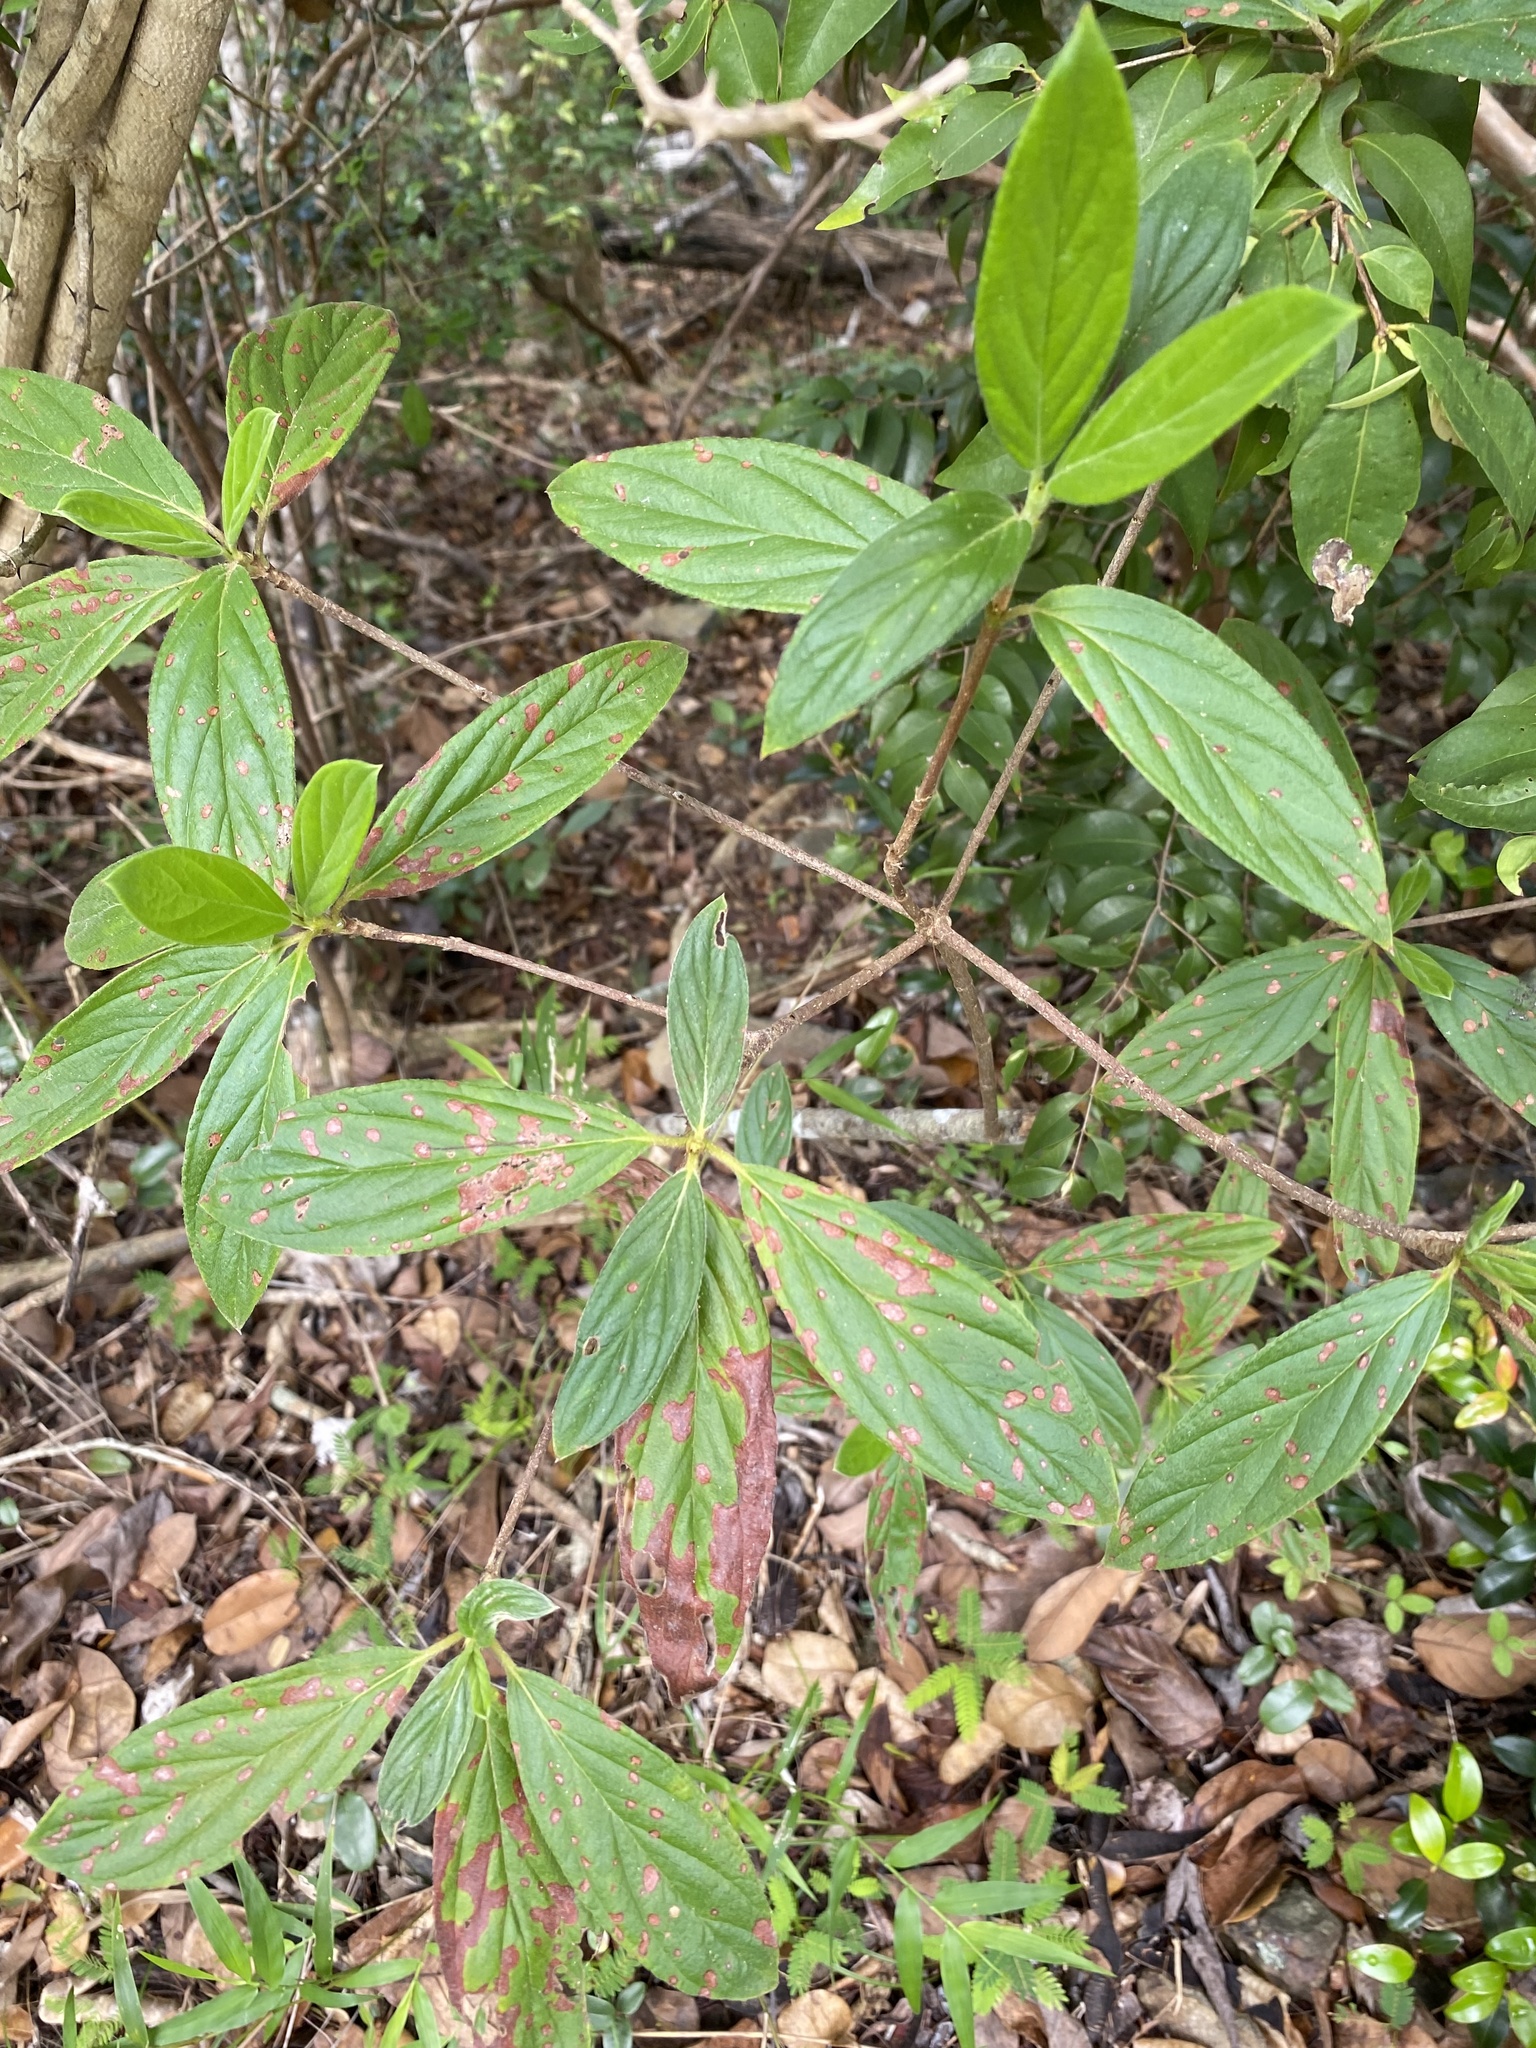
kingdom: Plantae
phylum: Tracheophyta
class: Magnoliopsida
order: Gentianales
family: Rubiaceae
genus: Rondeletia
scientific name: Rondeletia pilosa
